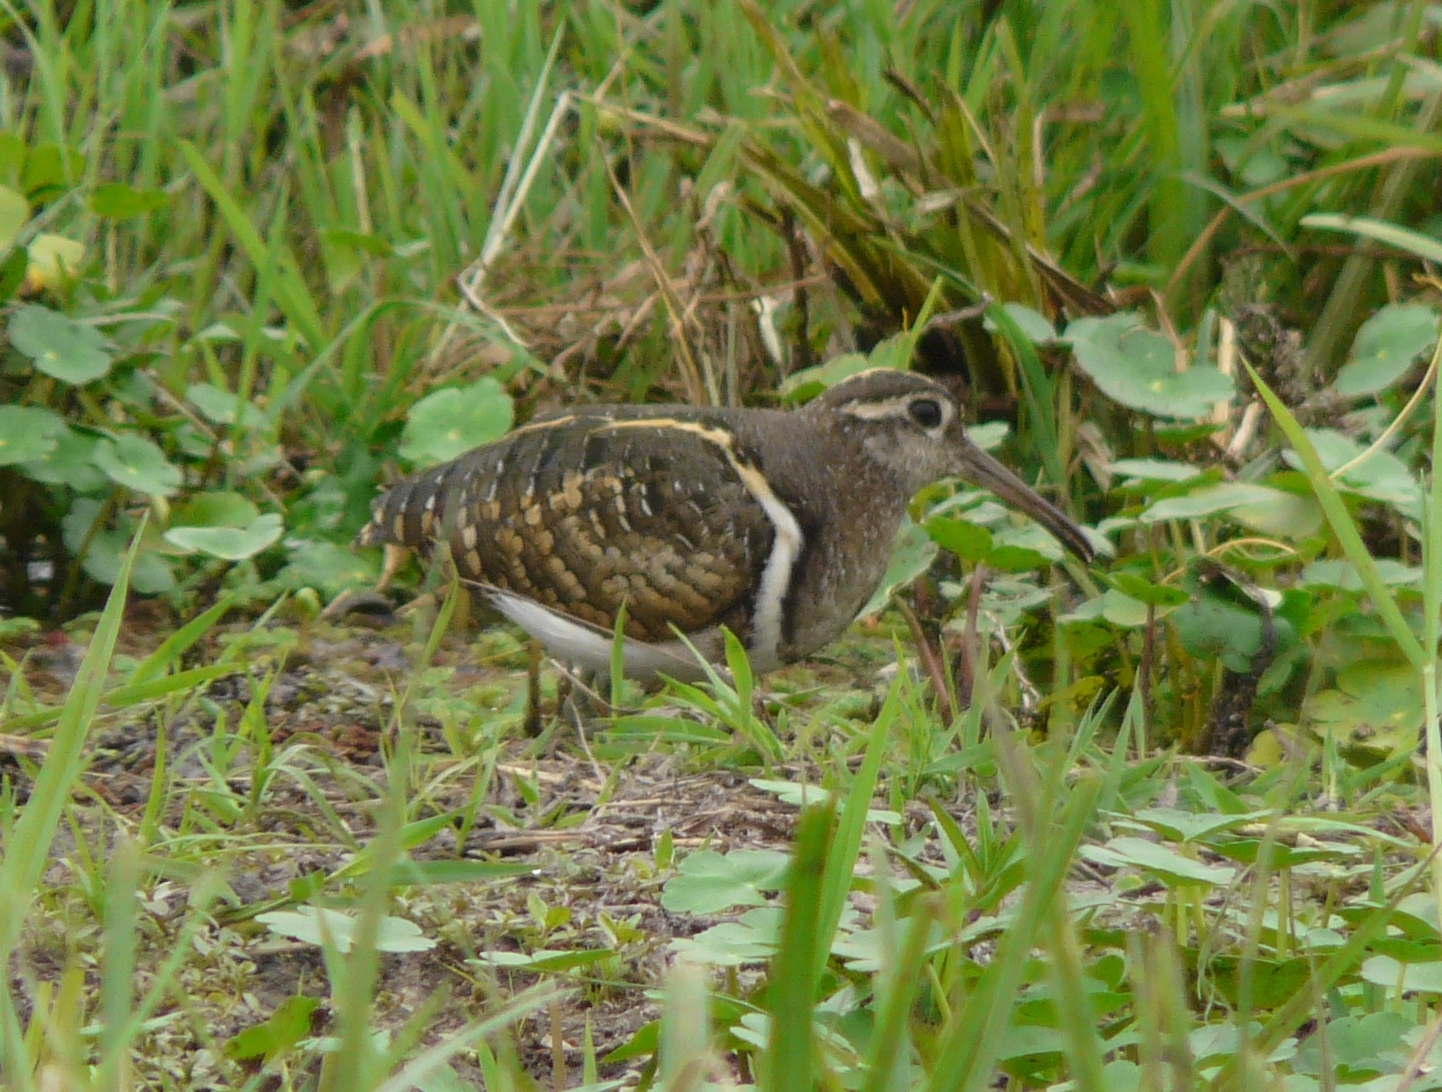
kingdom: Animalia
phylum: Chordata
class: Aves
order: Charadriiformes
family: Rostratulidae
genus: Rostratula
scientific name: Rostratula benghalensis
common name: Greater painted-snipe
